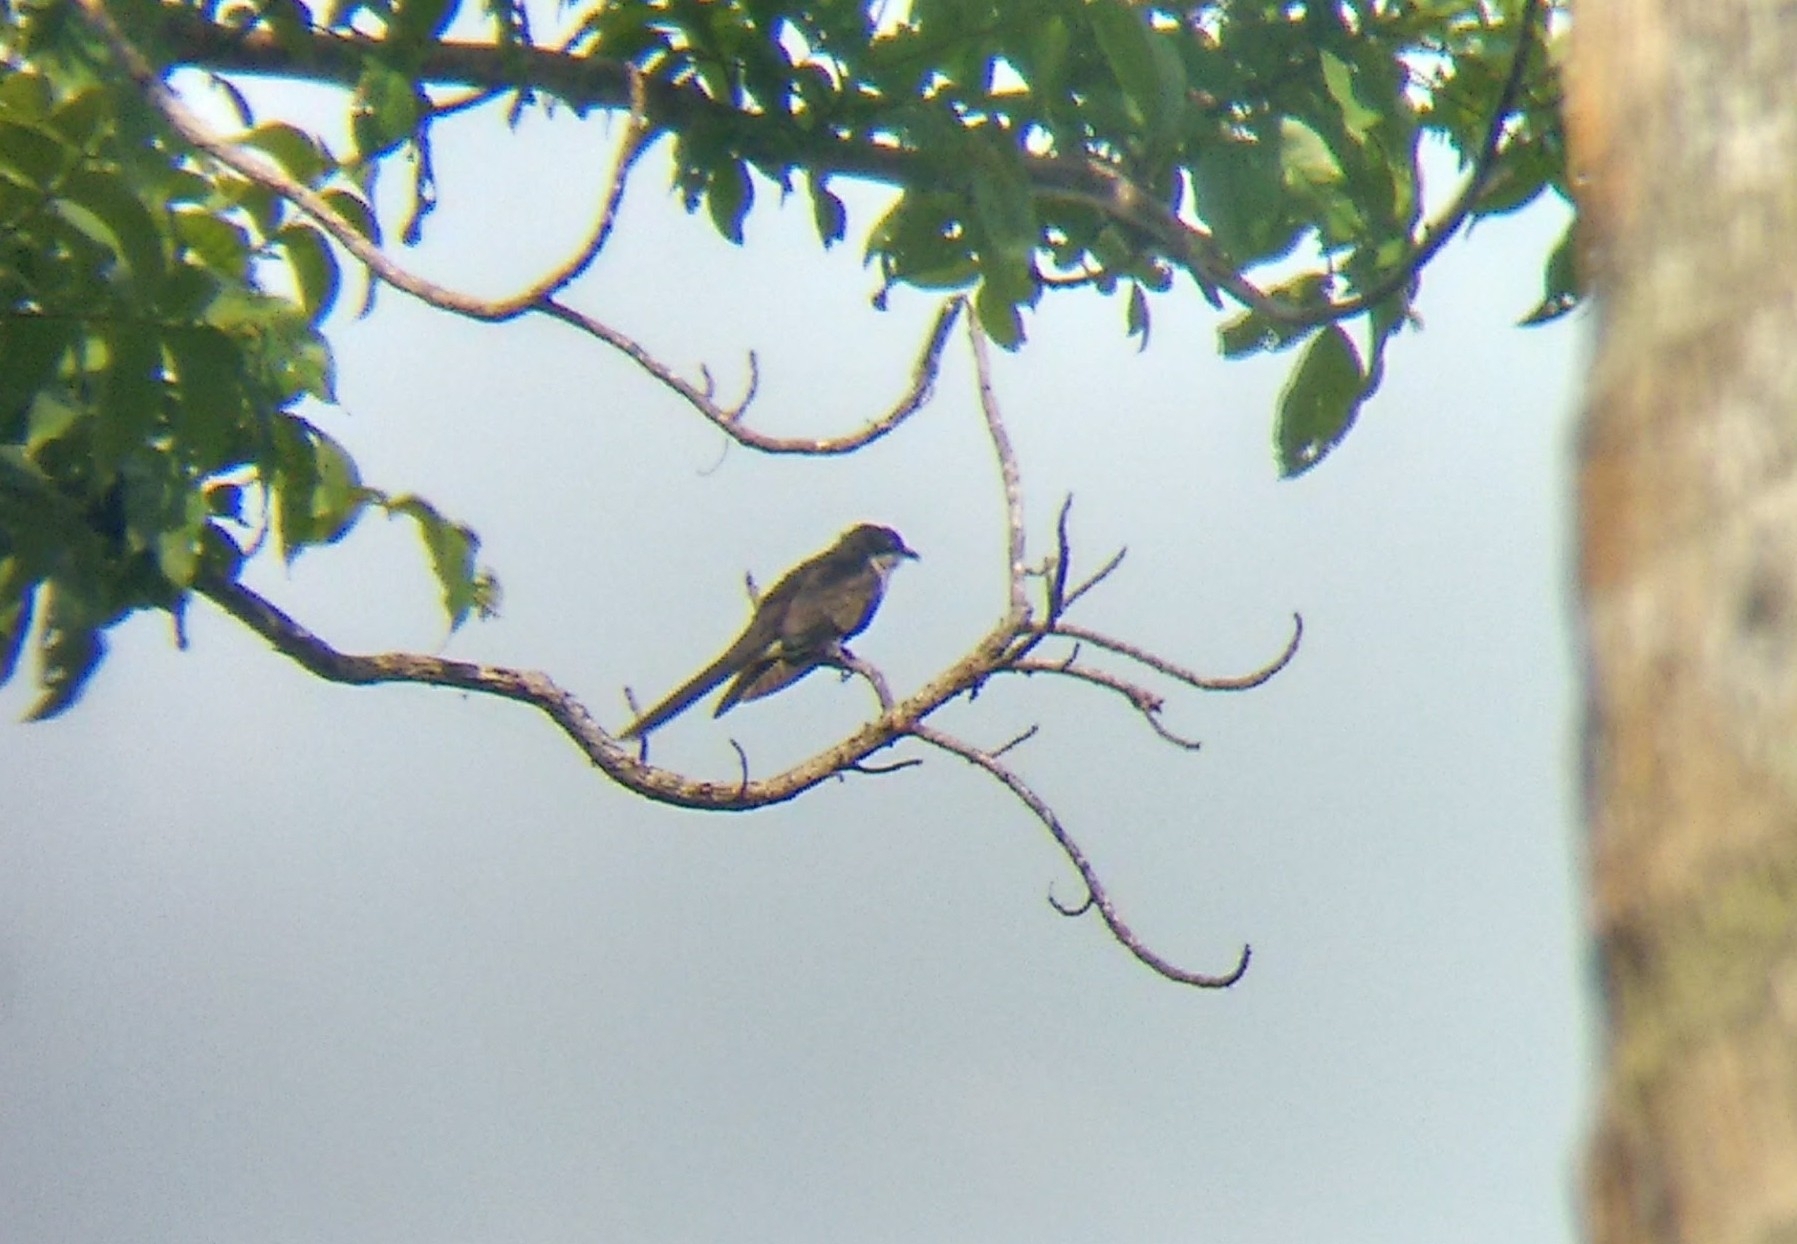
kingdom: Animalia
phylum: Chordata
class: Aves
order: Cuculiformes
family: Cuculidae
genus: Clamator
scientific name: Clamator jacobinus
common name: Jacobin cuckoo
